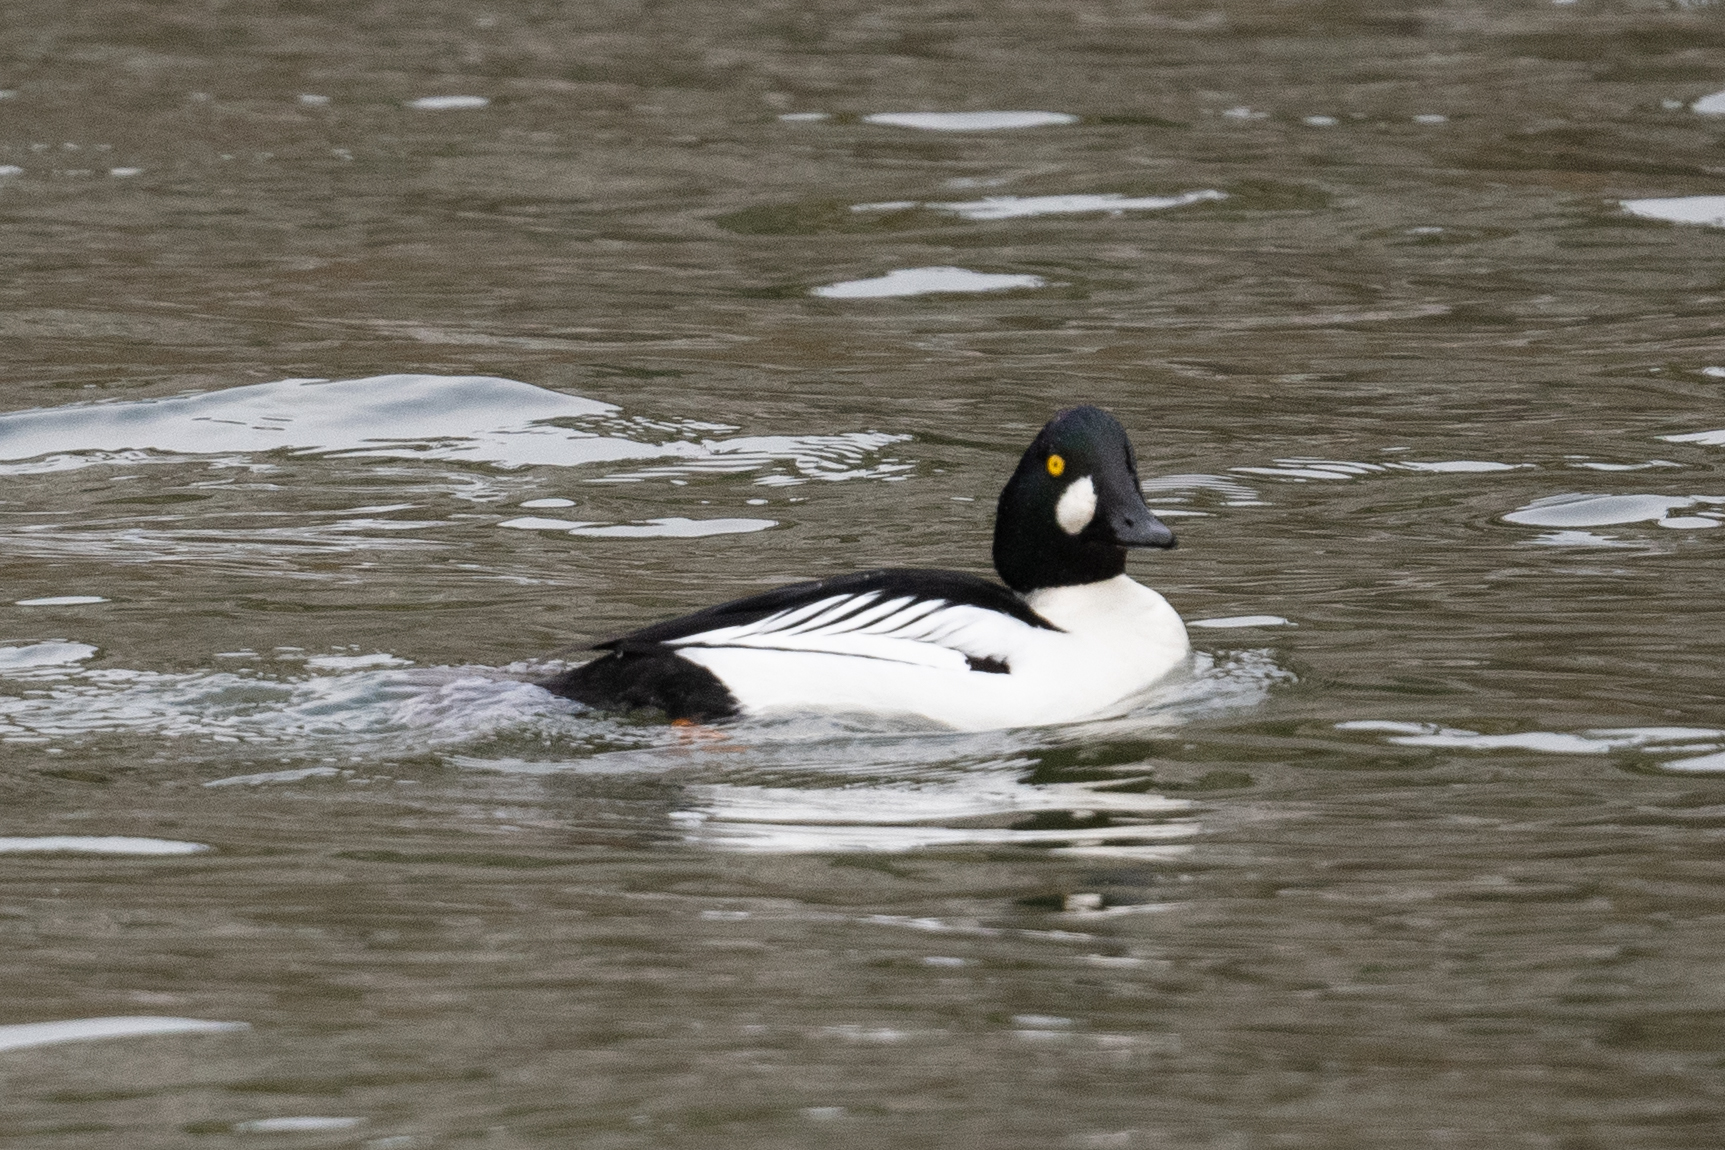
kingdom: Animalia
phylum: Chordata
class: Aves
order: Anseriformes
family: Anatidae
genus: Bucephala
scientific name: Bucephala clangula
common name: Common goldeneye
